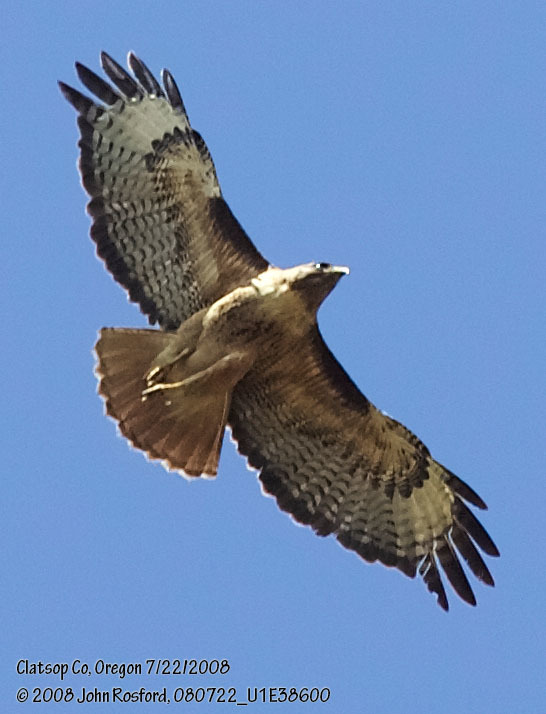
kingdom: Animalia
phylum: Chordata
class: Aves
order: Accipitriformes
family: Accipitridae
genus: Buteo
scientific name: Buteo jamaicensis
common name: Red-tailed hawk
